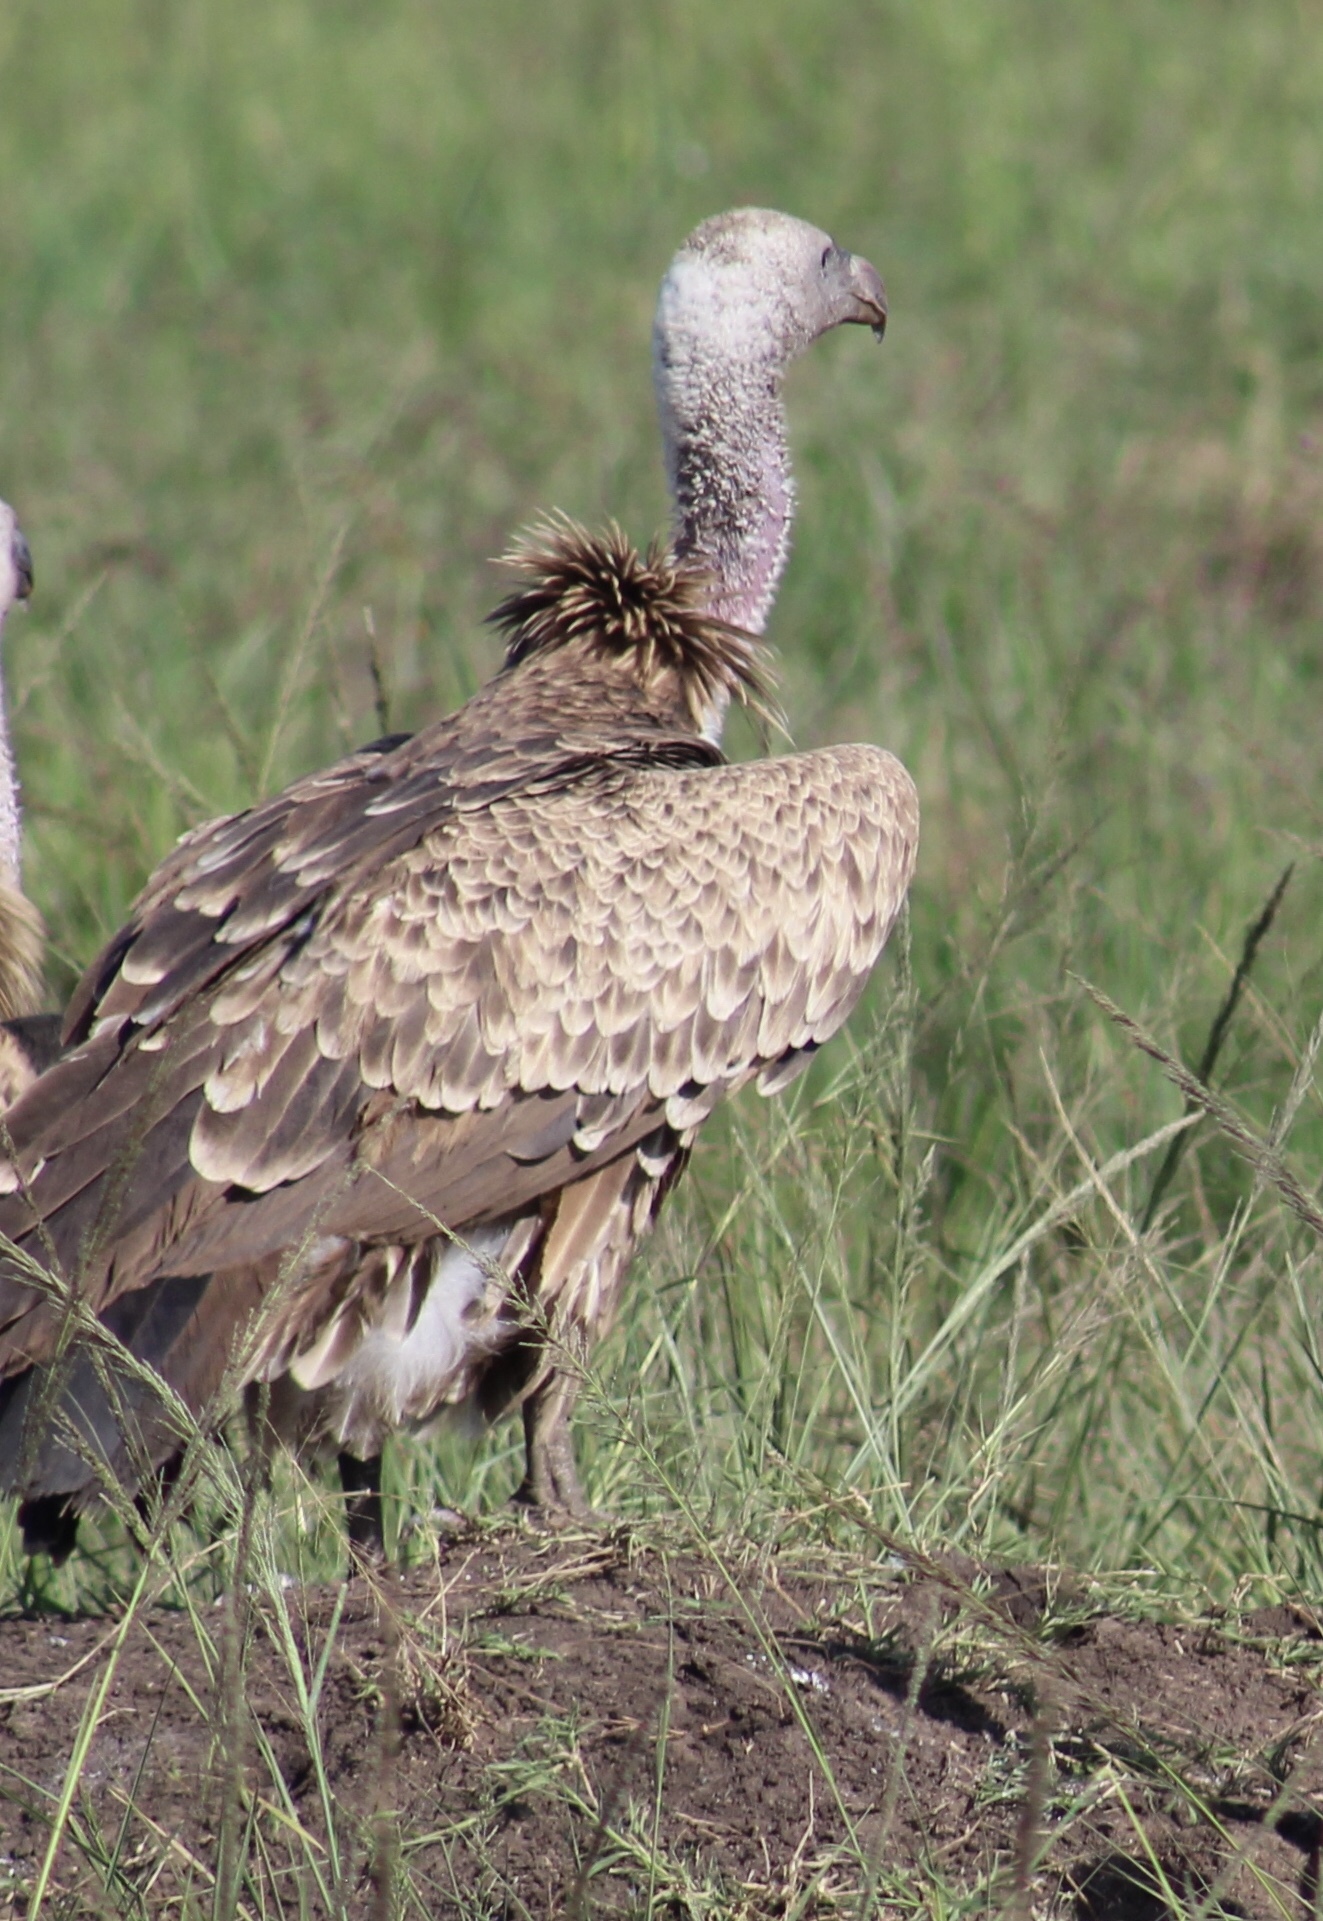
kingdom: Animalia
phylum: Chordata
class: Aves
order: Accipitriformes
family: Accipitridae
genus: Gyps
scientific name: Gyps rueppellii
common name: Rüppell's vulture
